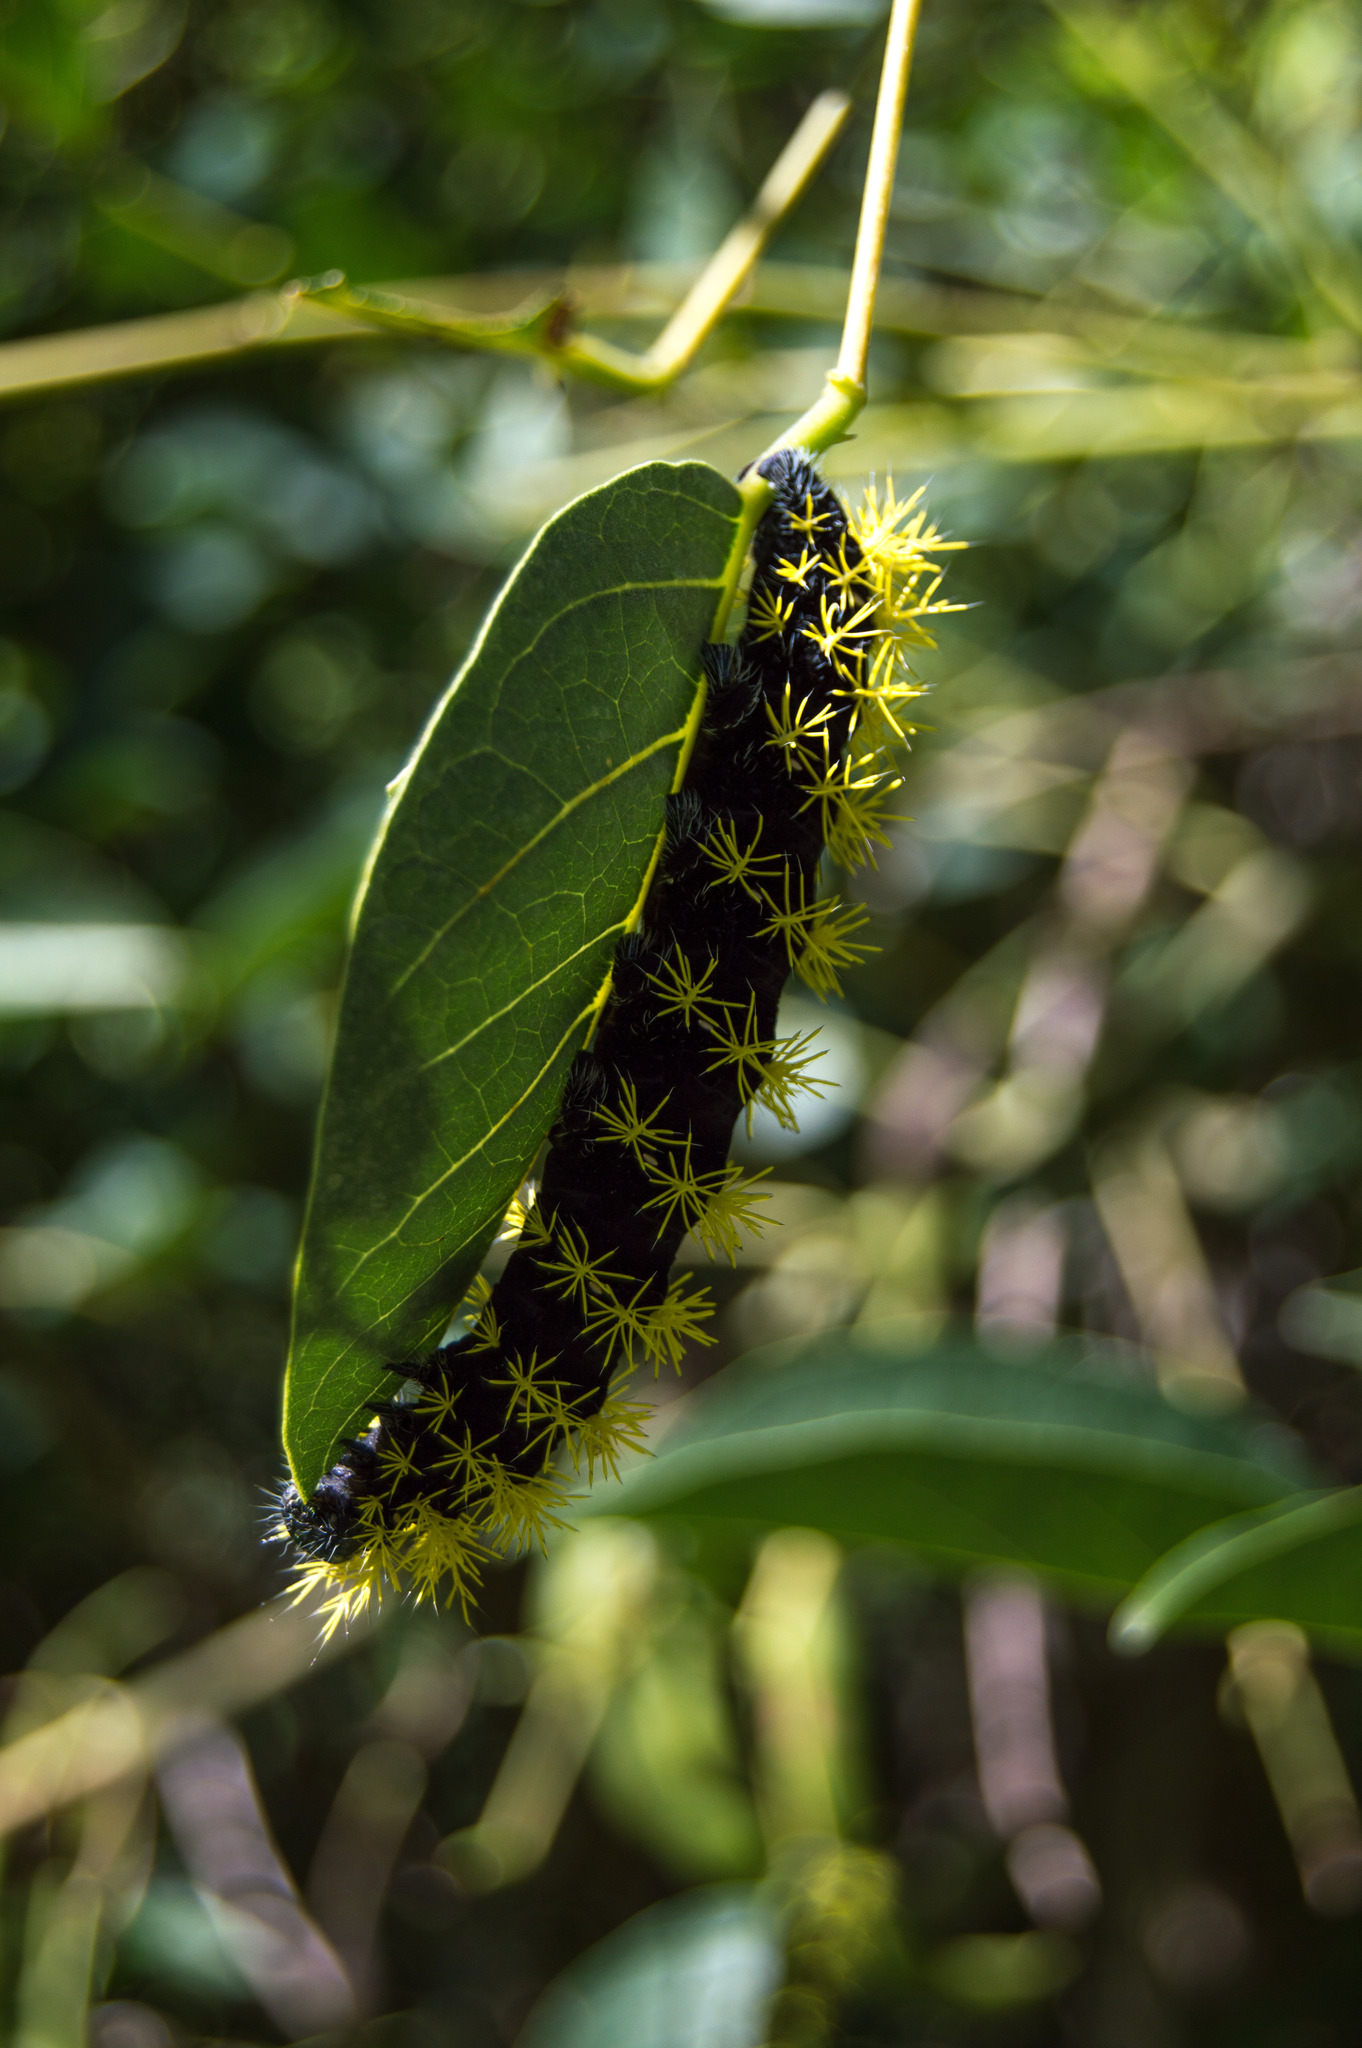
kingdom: Animalia
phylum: Arthropoda
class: Insecta
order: Lepidoptera
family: Saturniidae
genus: Leucanella
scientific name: Leucanella viridescens
